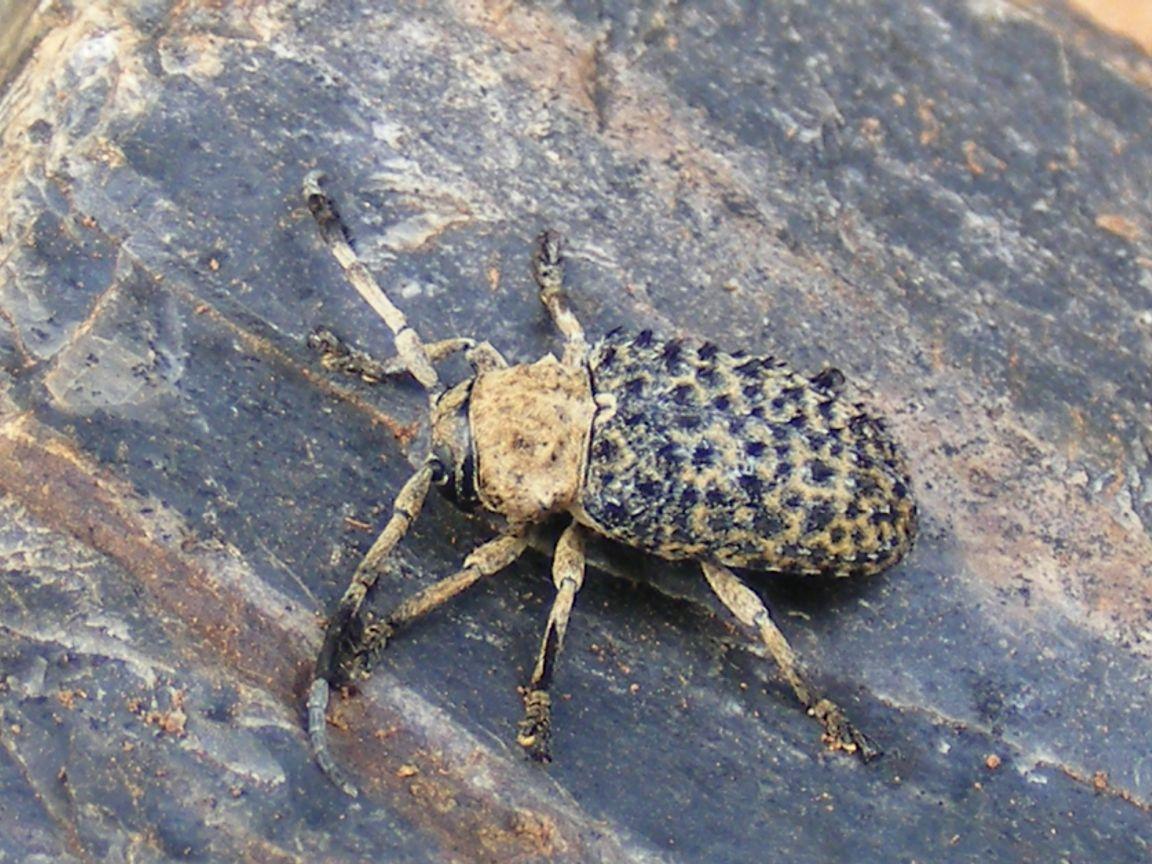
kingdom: Animalia
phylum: Arthropoda
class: Insecta
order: Coleoptera
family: Cerambycidae
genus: Gasponia
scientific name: Gasponia gaujani
